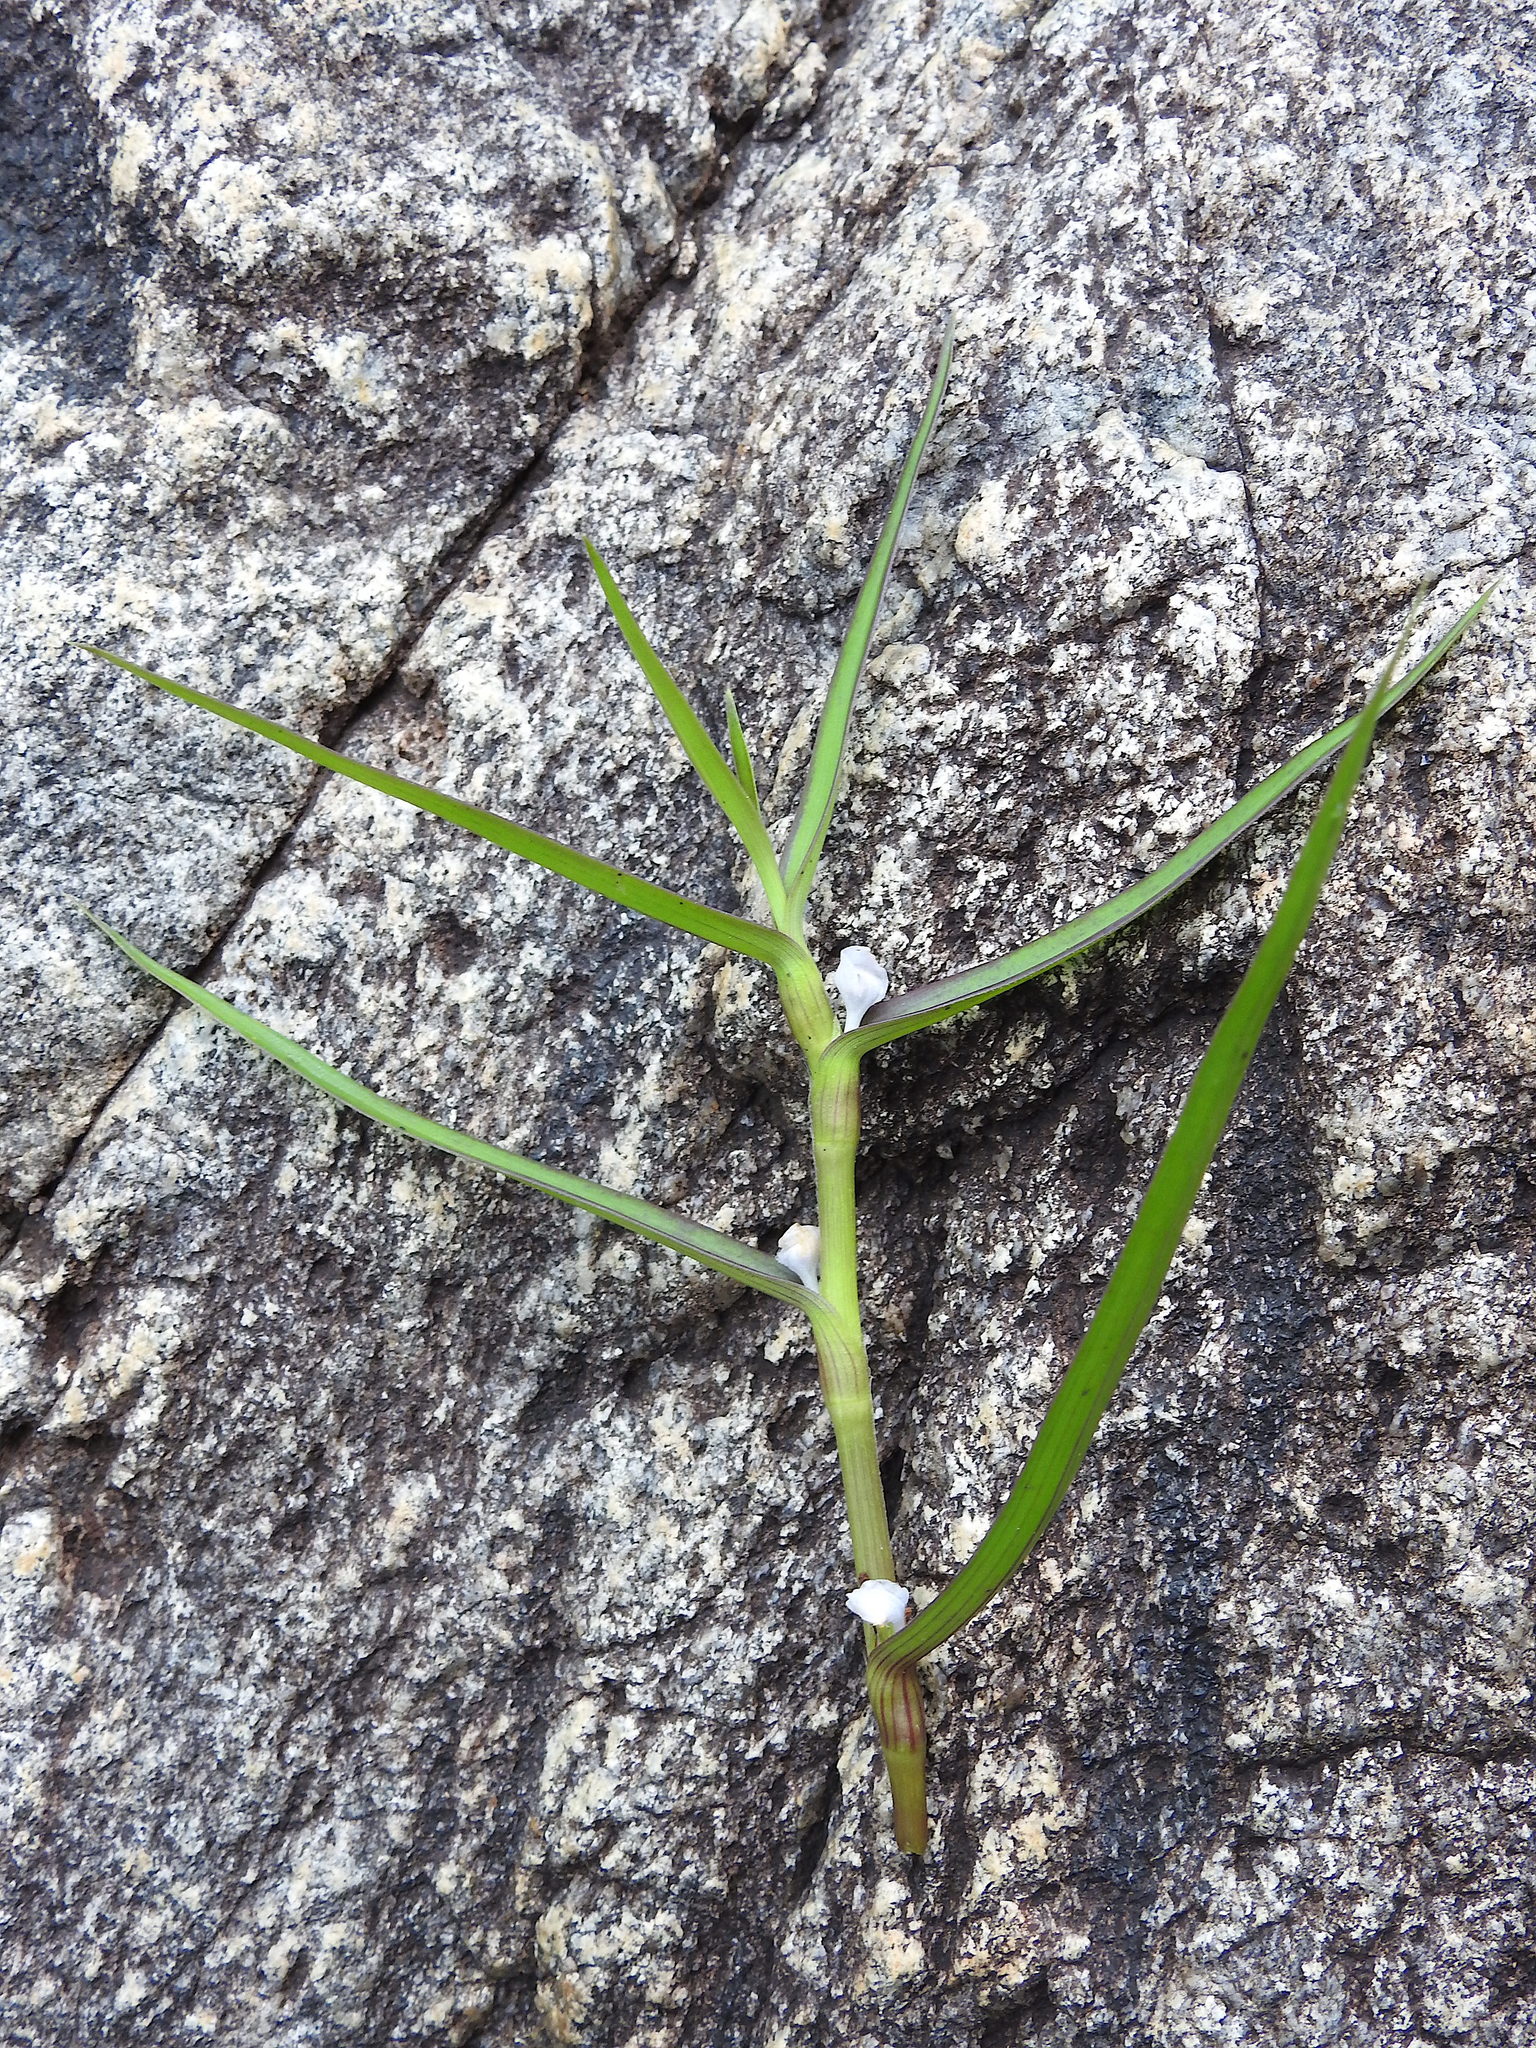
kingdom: Plantae
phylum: Tracheophyta
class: Liliopsida
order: Commelinales
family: Commelinaceae
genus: Cyanotis
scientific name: Cyanotis axillaris
